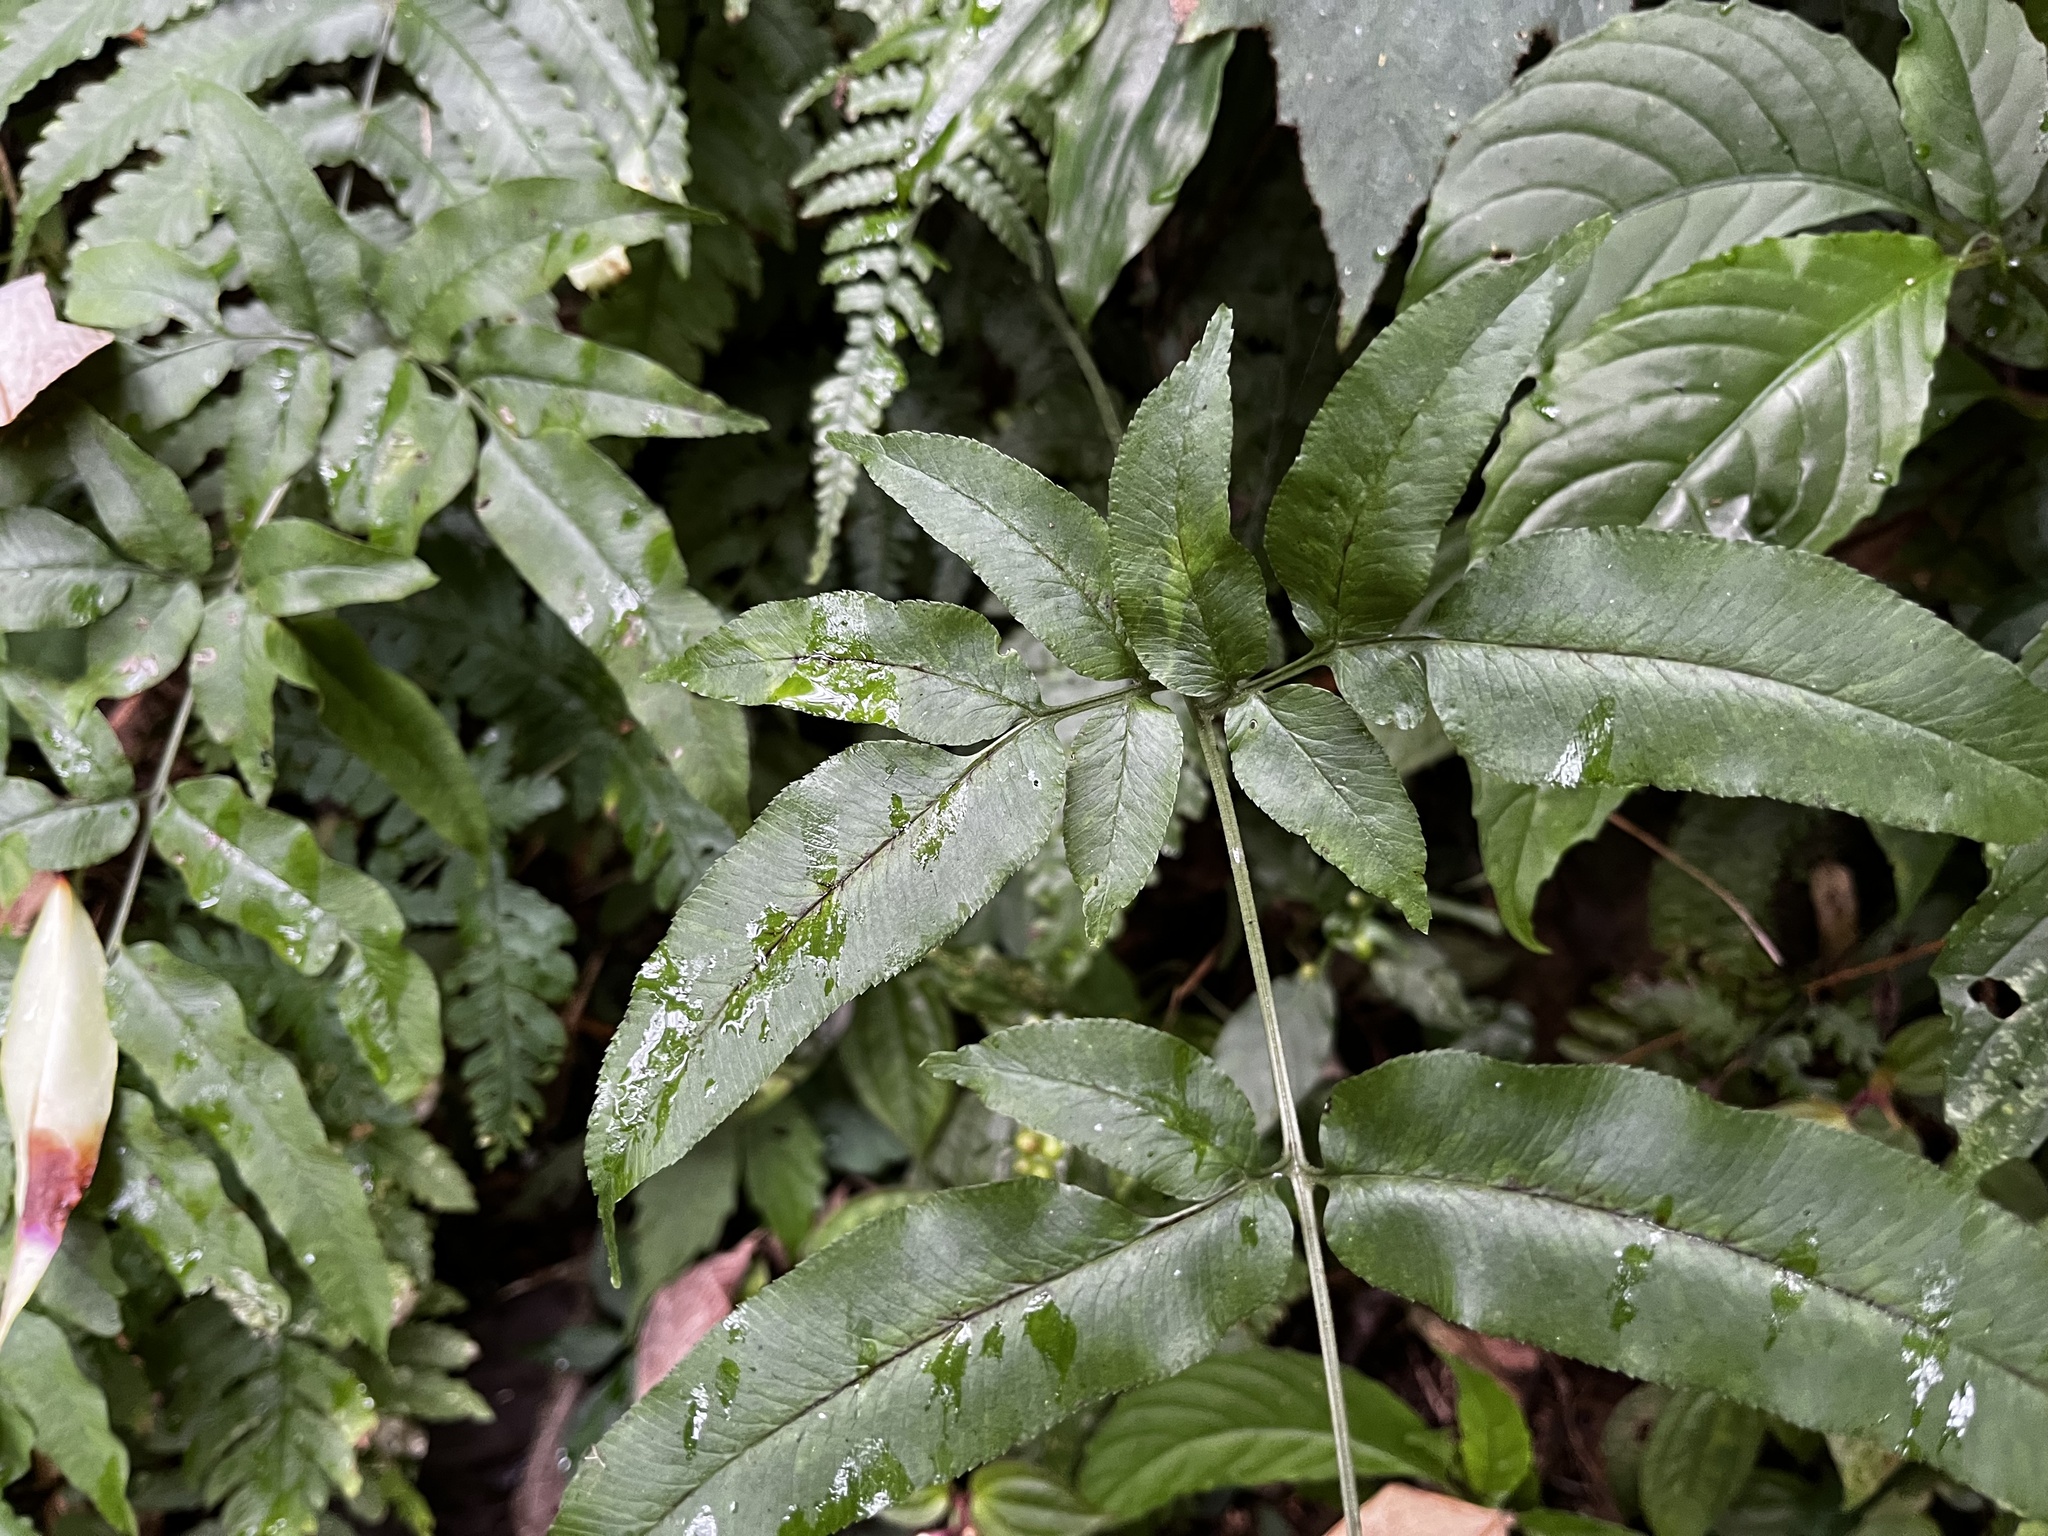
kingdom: Plantae
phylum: Tracheophyta
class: Polypodiopsida
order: Polypodiales
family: Pteridaceae
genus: Coniogramme
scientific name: Coniogramme intermedia
